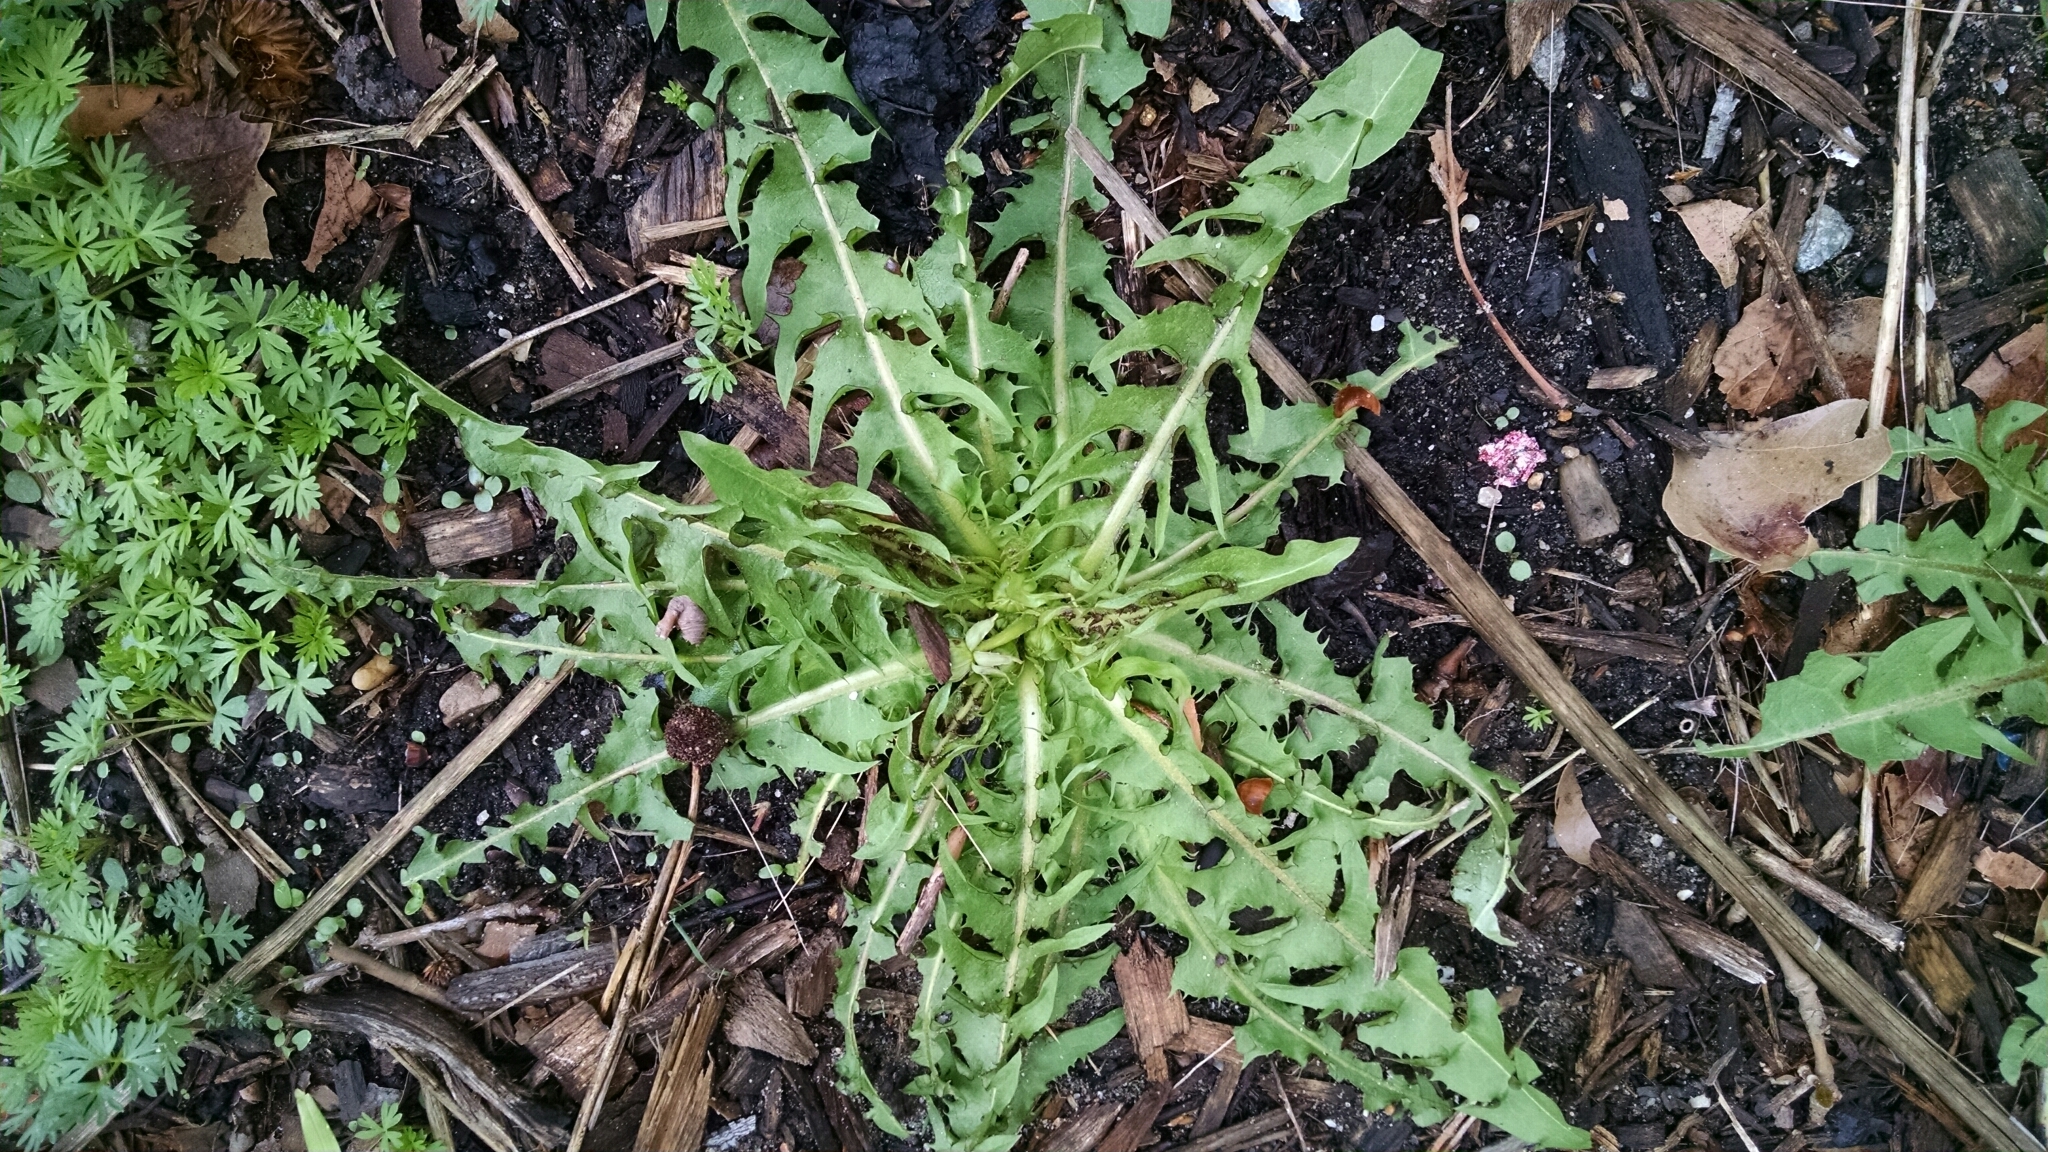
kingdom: Plantae
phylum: Tracheophyta
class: Magnoliopsida
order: Asterales
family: Asteraceae
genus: Taraxacum
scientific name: Taraxacum officinale
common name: Common dandelion
